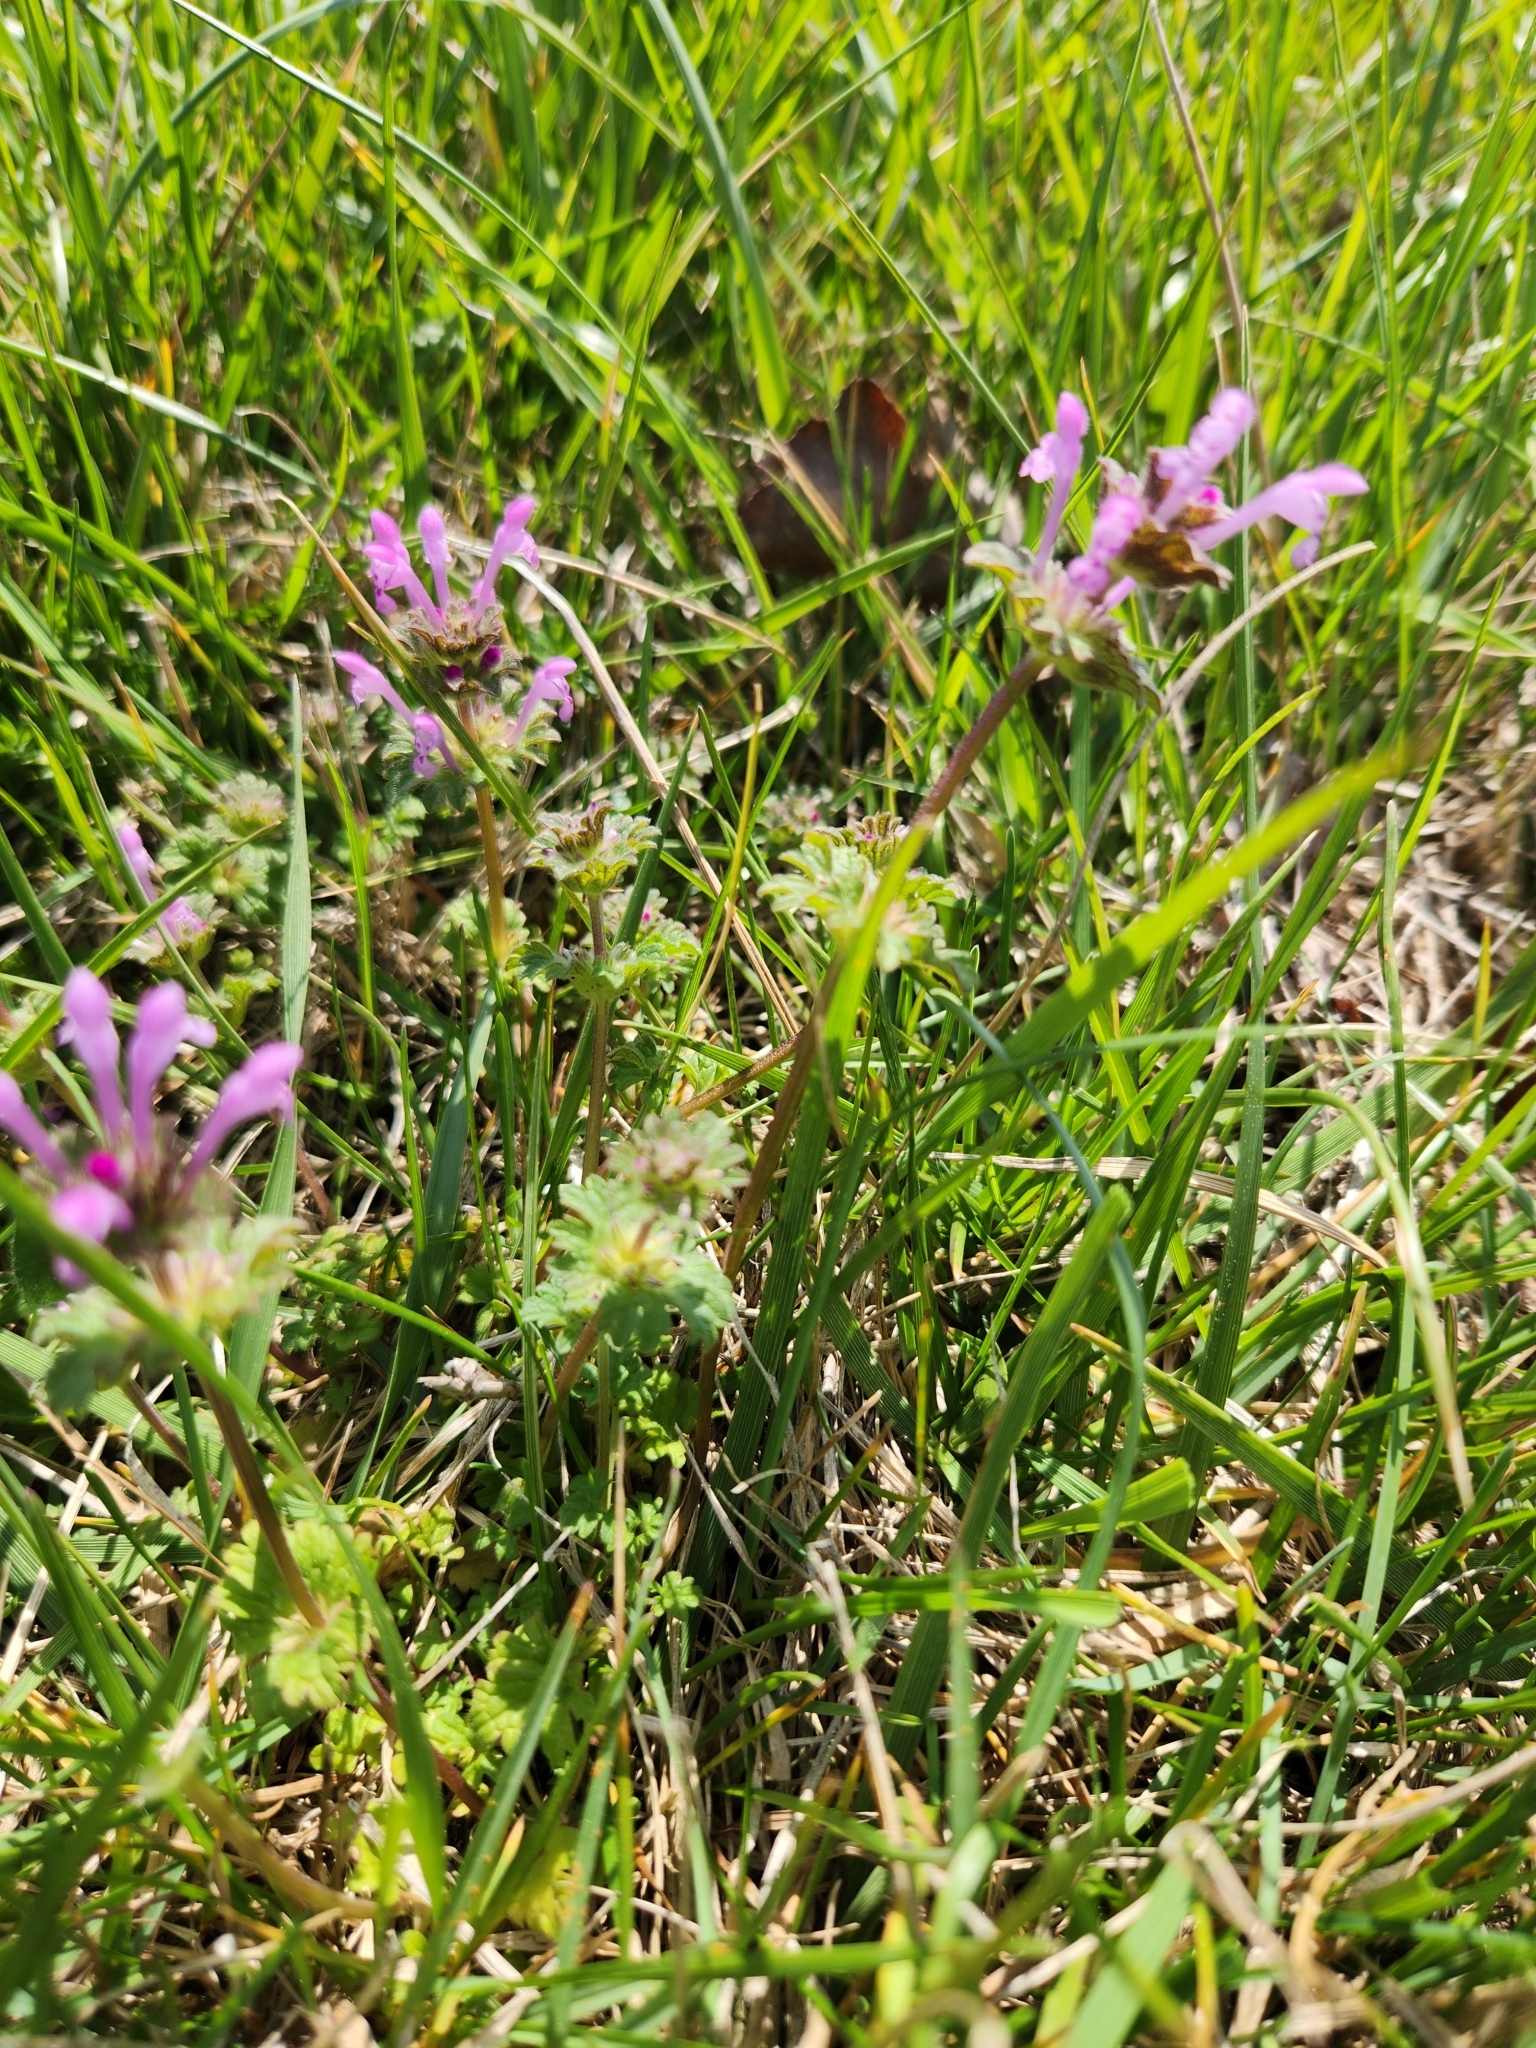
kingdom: Plantae
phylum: Tracheophyta
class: Magnoliopsida
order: Lamiales
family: Lamiaceae
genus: Lamium
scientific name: Lamium amplexicaule
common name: Henbit dead-nettle
